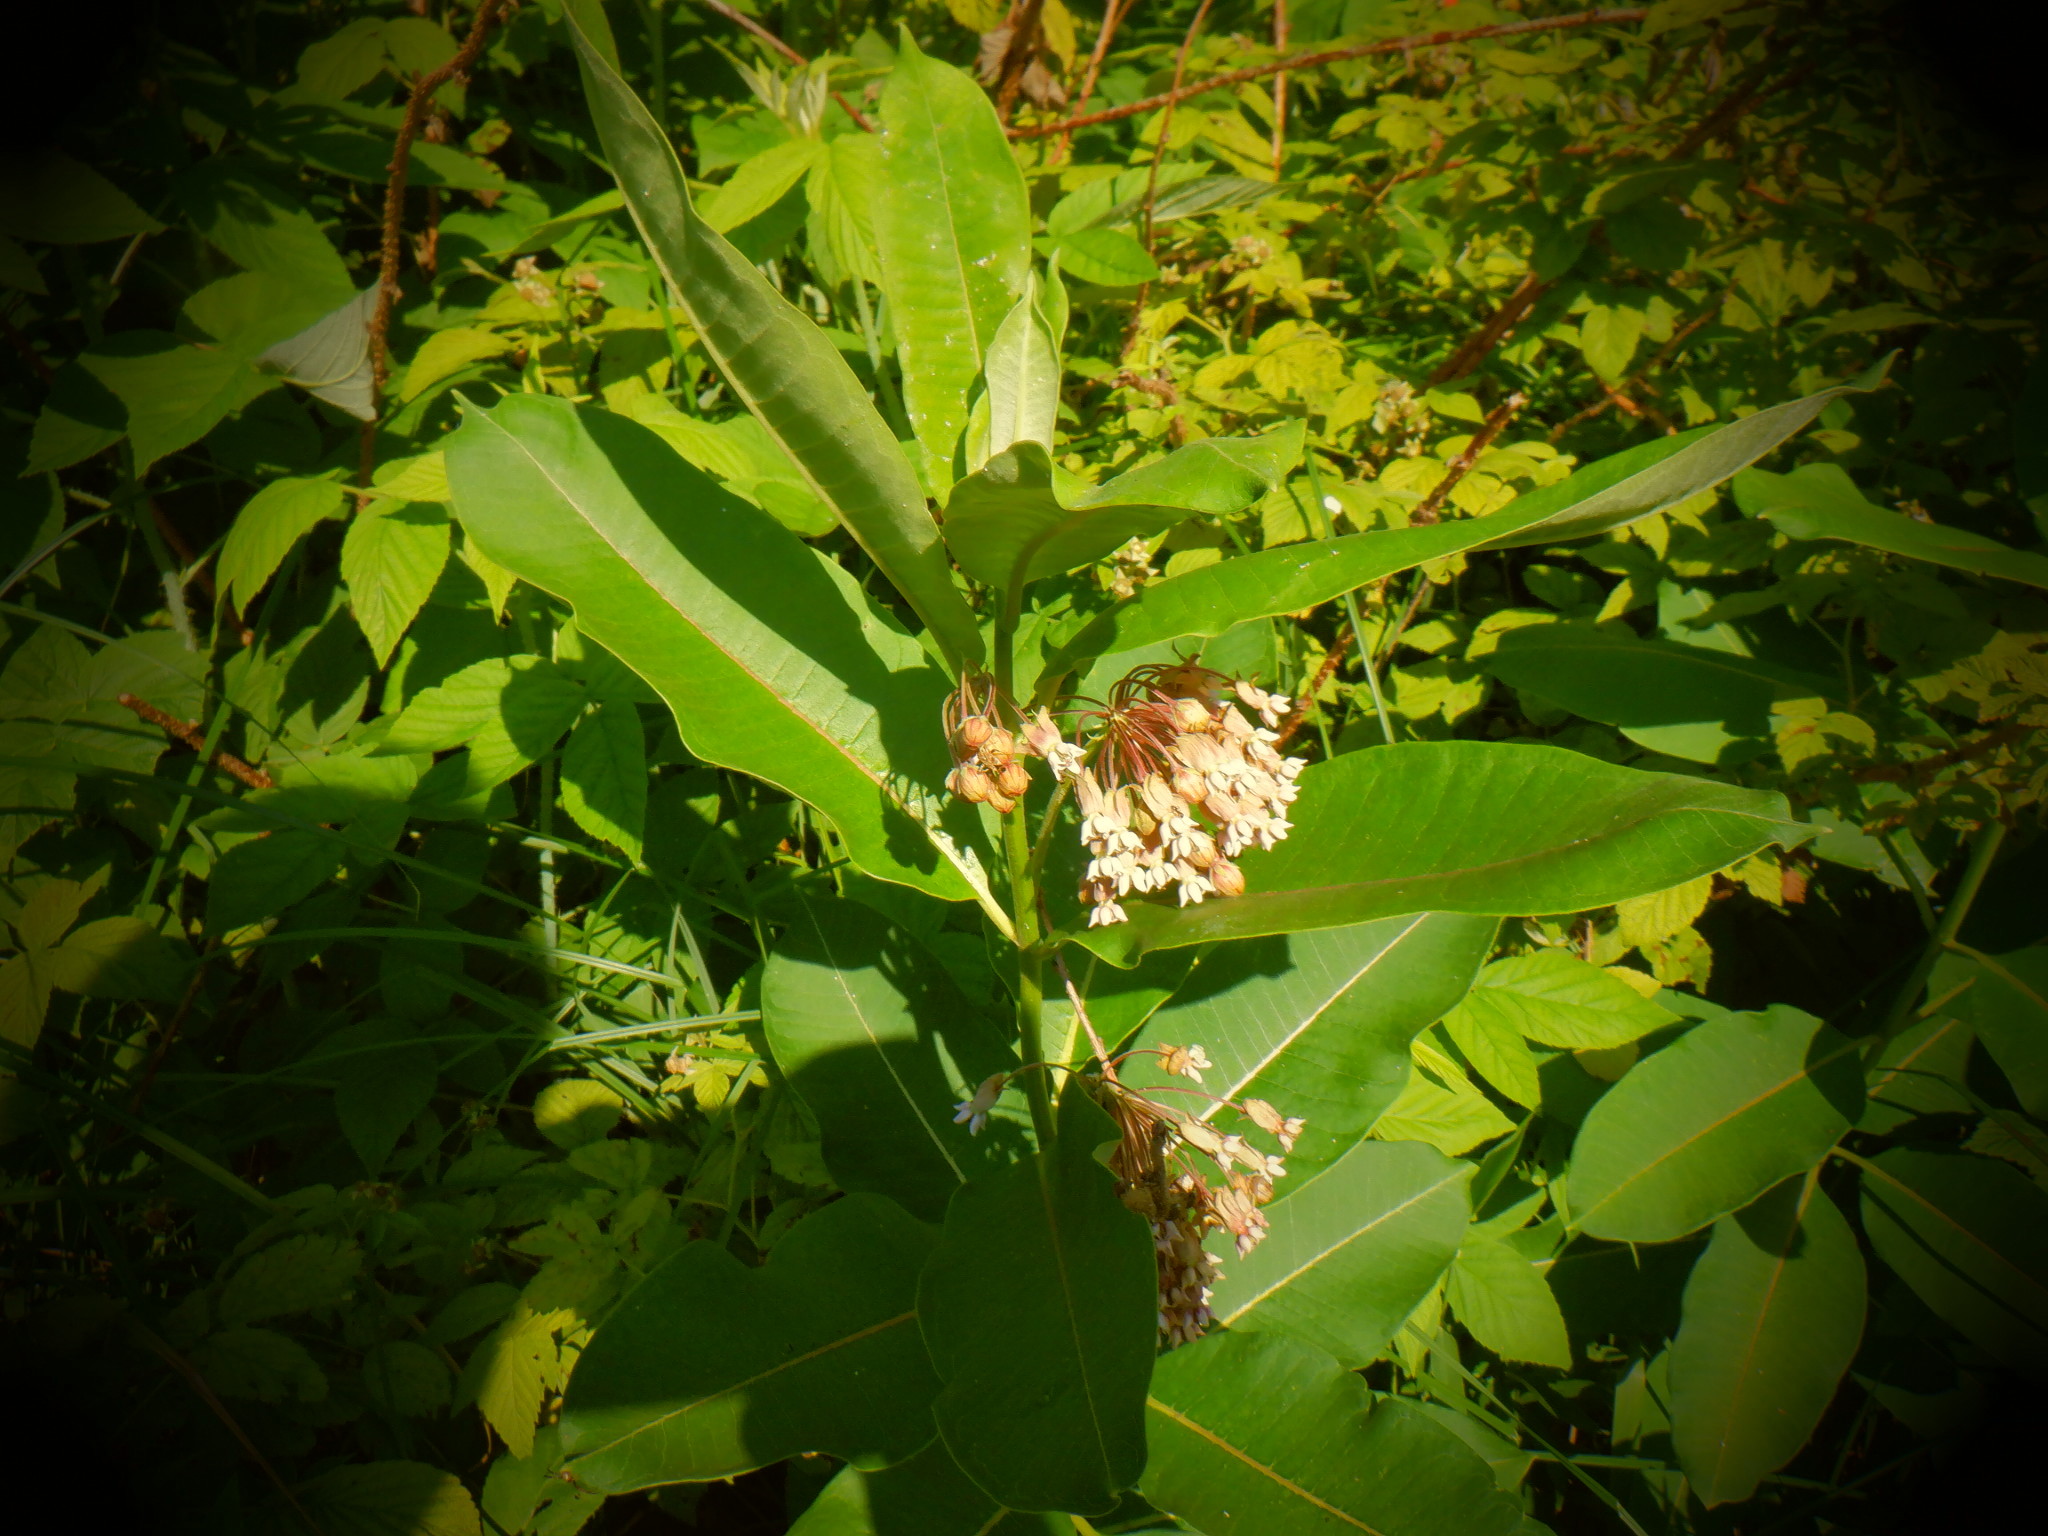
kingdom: Plantae
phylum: Tracheophyta
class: Magnoliopsida
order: Gentianales
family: Apocynaceae
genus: Asclepias
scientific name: Asclepias syriaca
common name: Common milkweed
